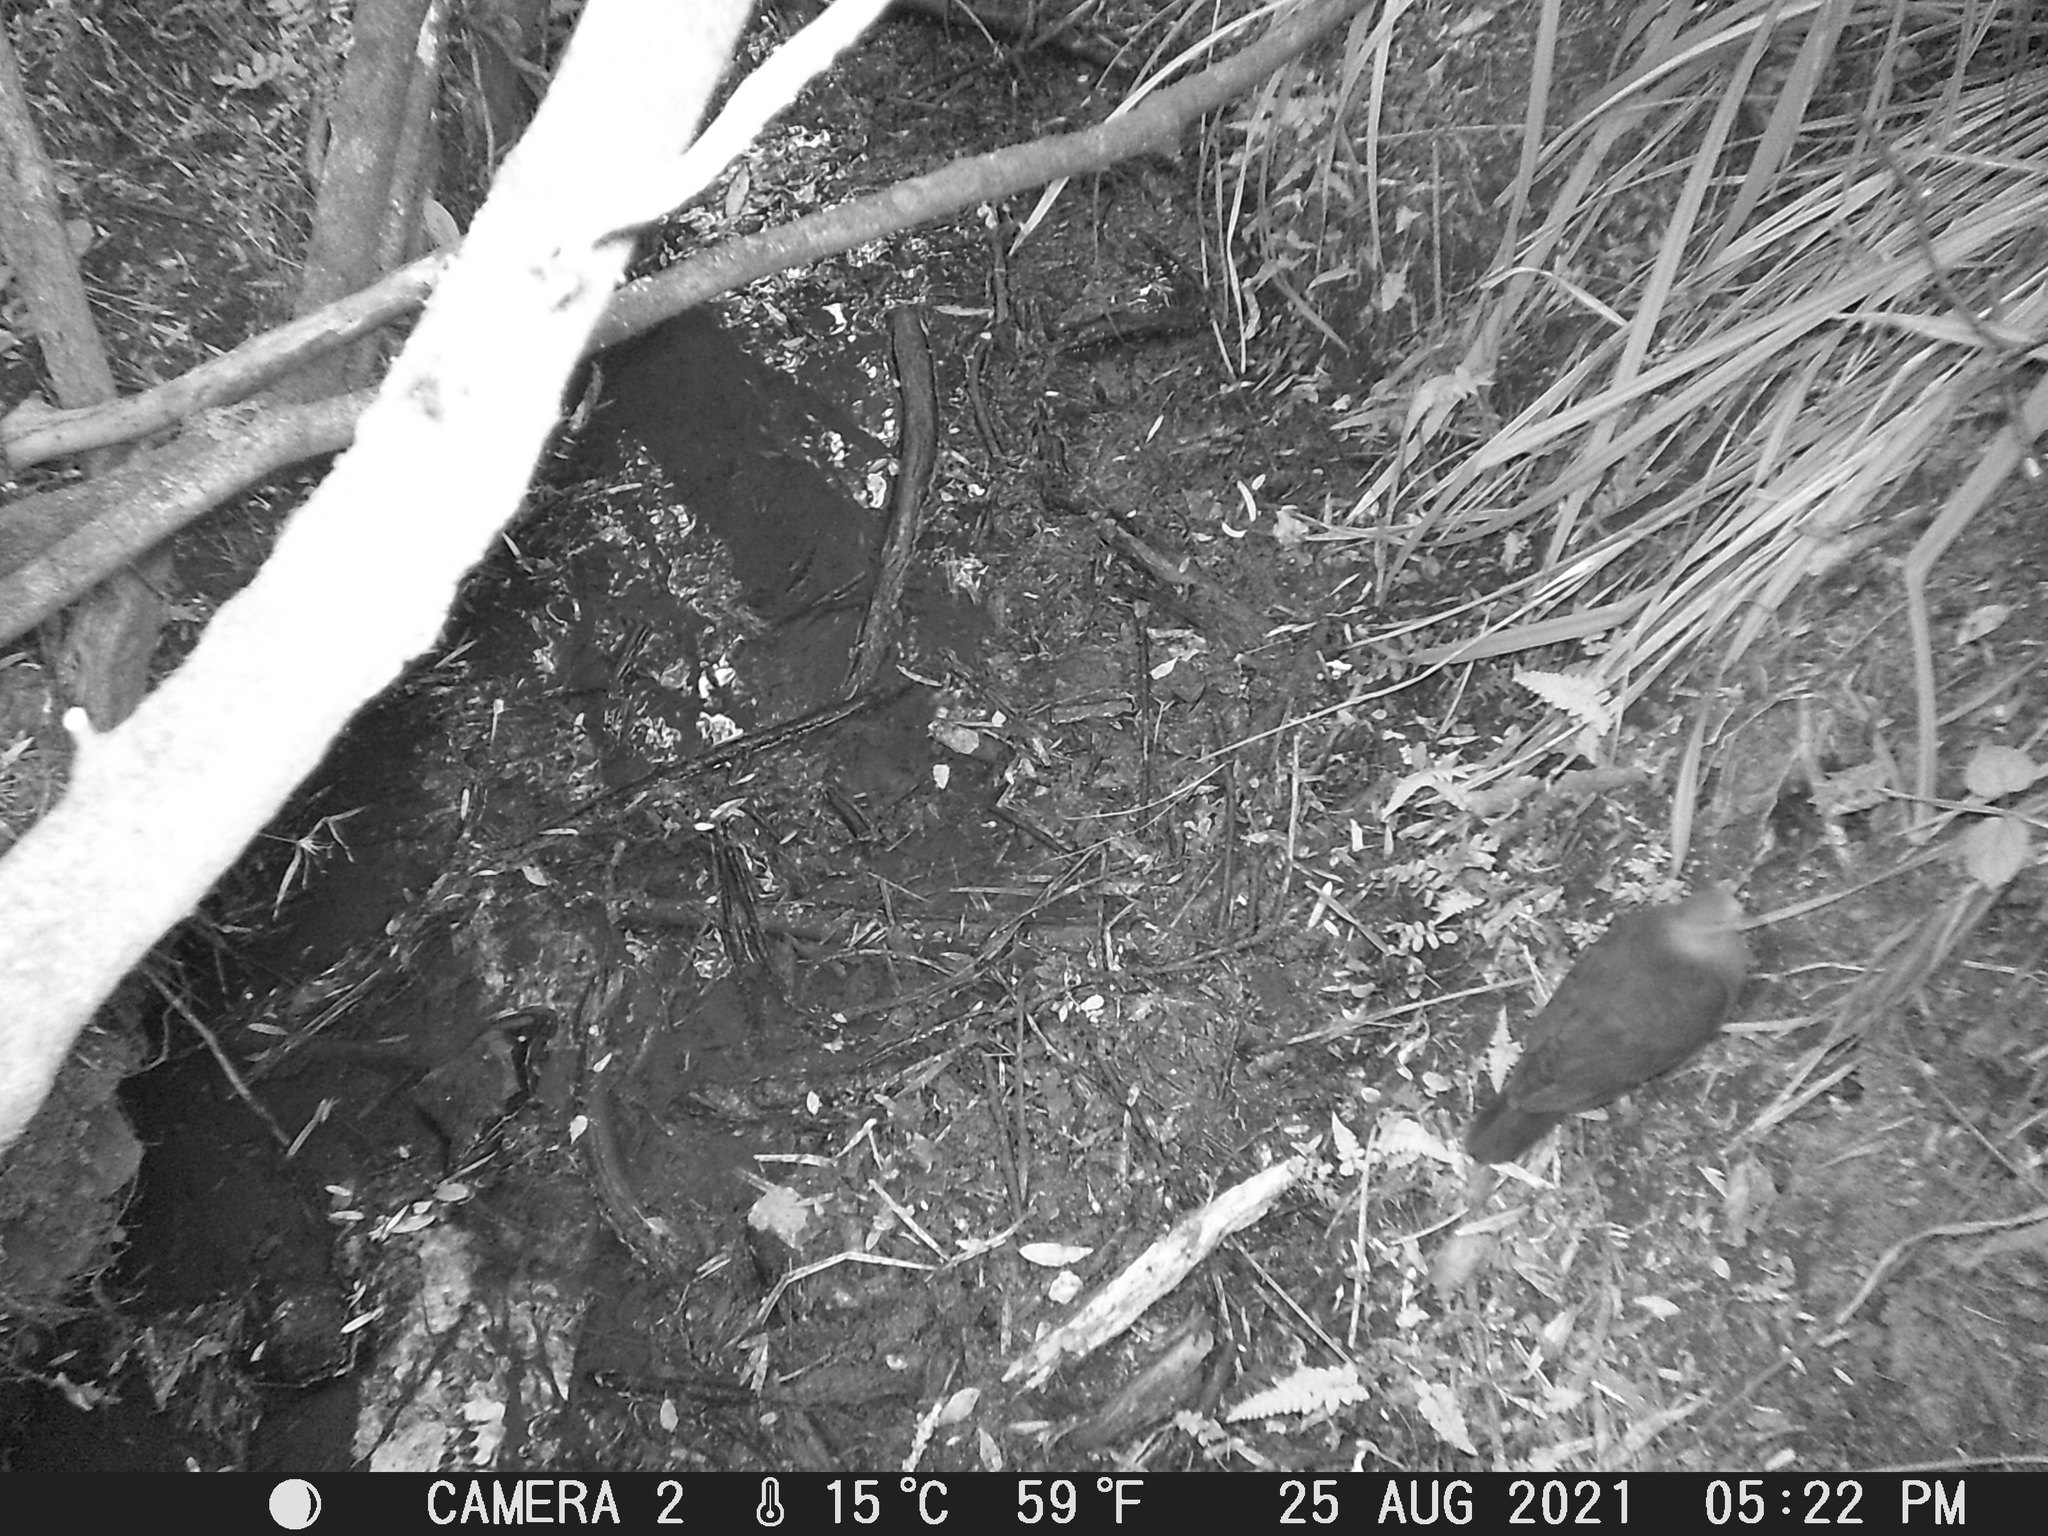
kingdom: Animalia
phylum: Chordata
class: Aves
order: Columbiformes
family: Columbidae
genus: Columba
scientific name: Columba larvata
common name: Lemon dove
